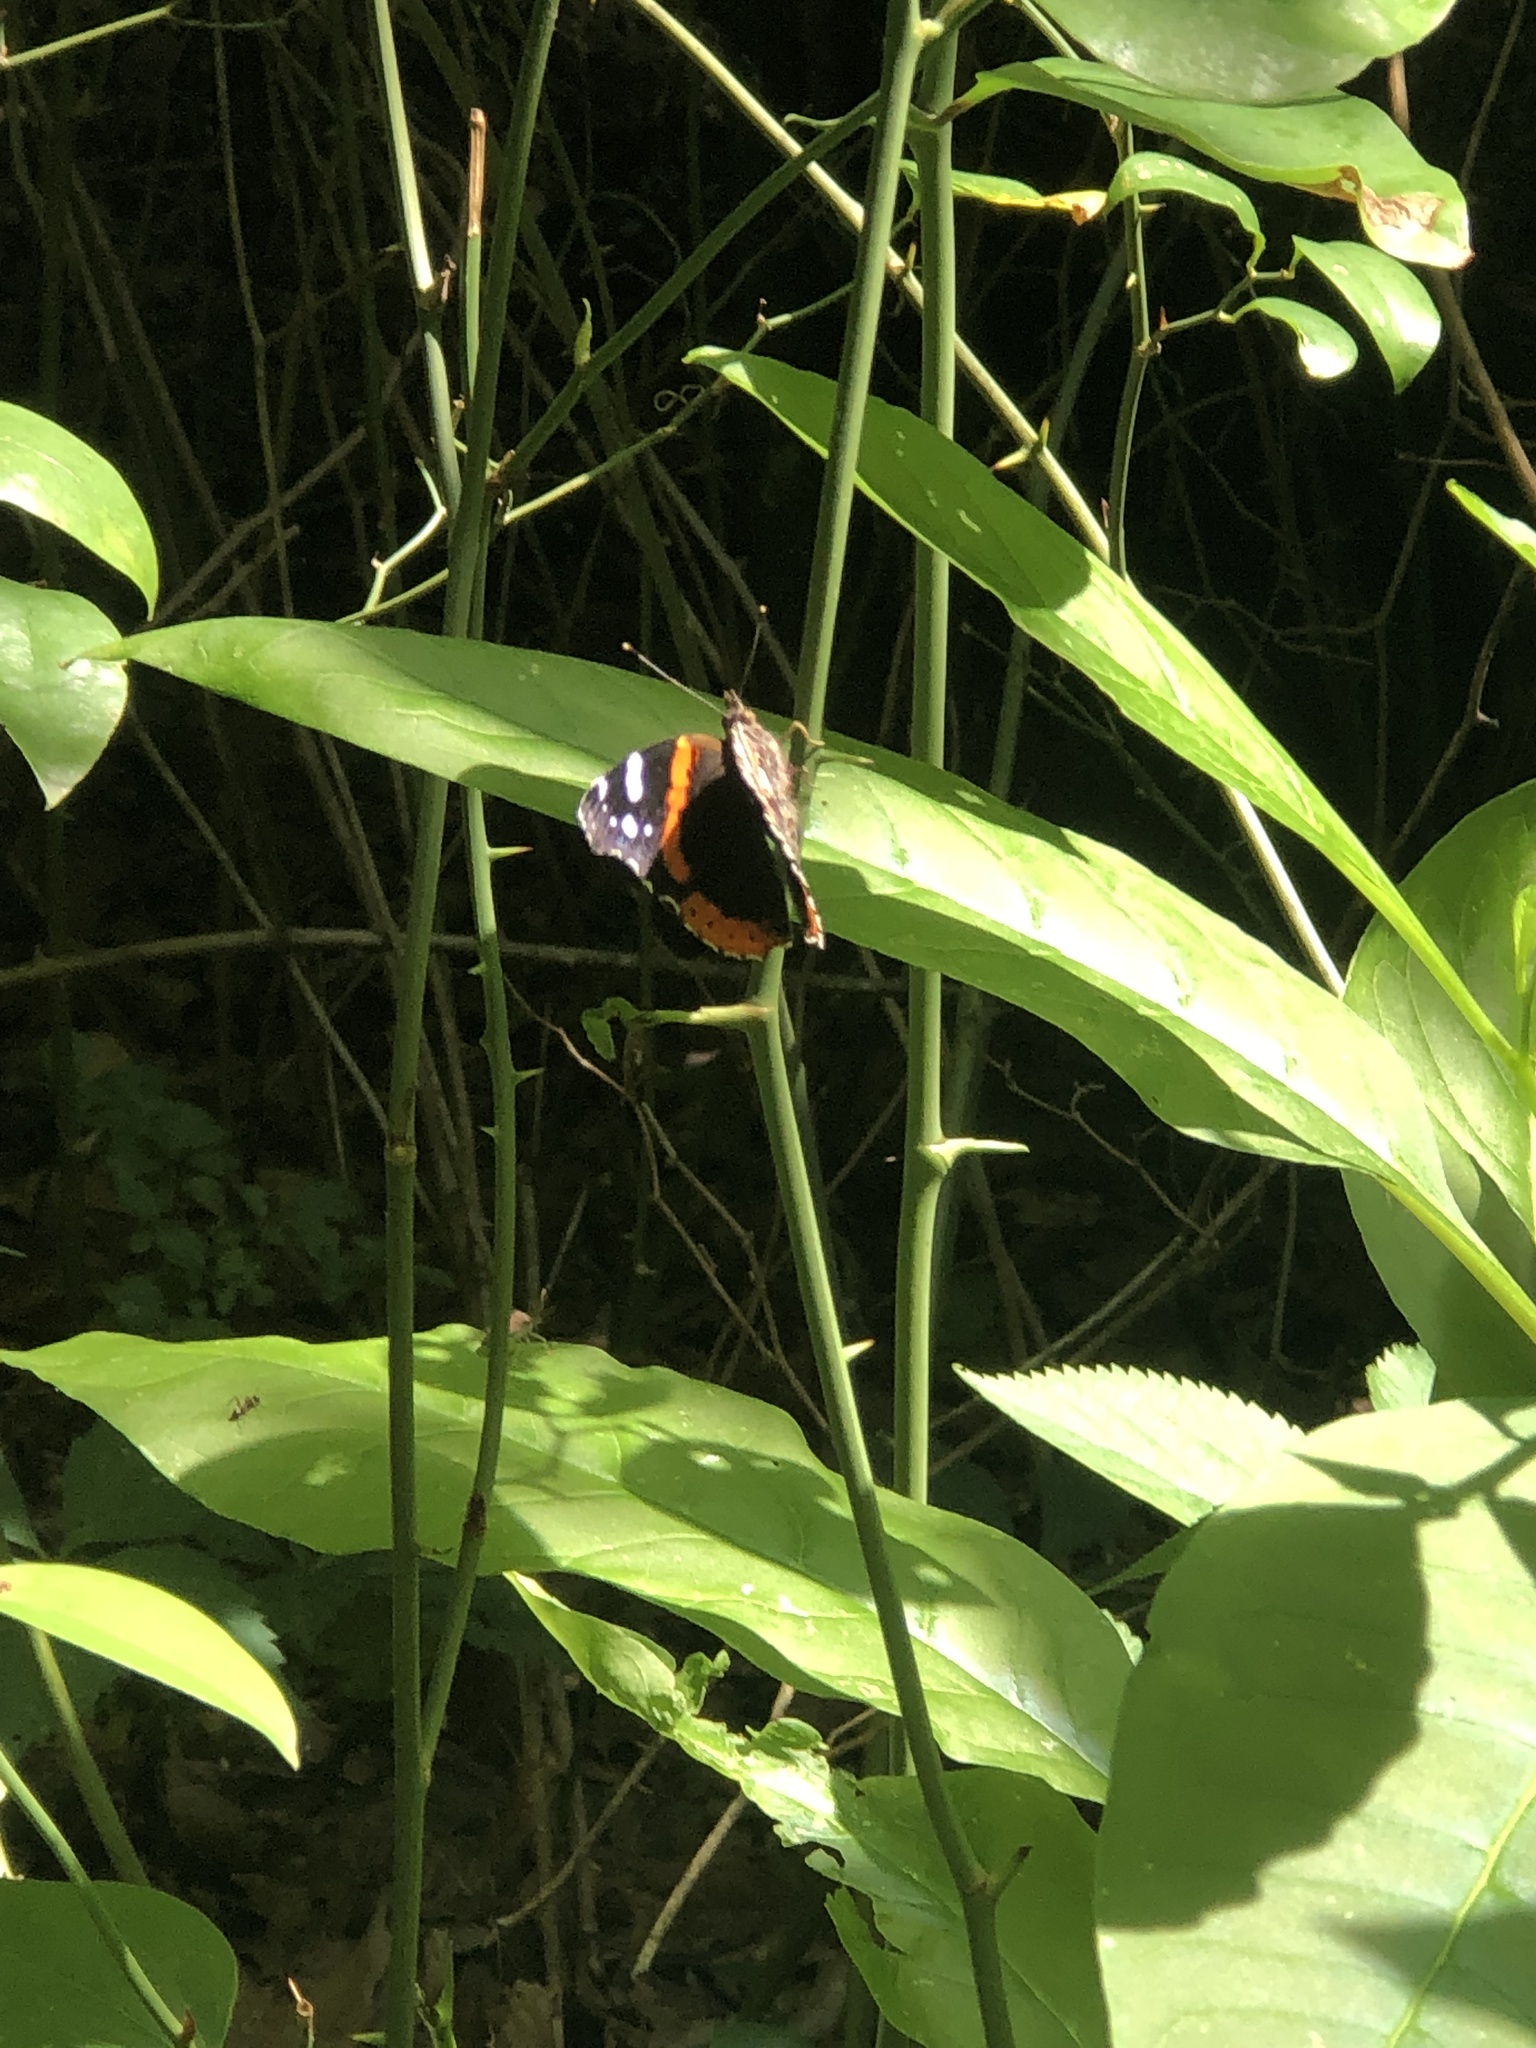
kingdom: Animalia
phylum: Arthropoda
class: Insecta
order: Lepidoptera
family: Nymphalidae
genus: Vanessa
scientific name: Vanessa atalanta
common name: Red admiral
